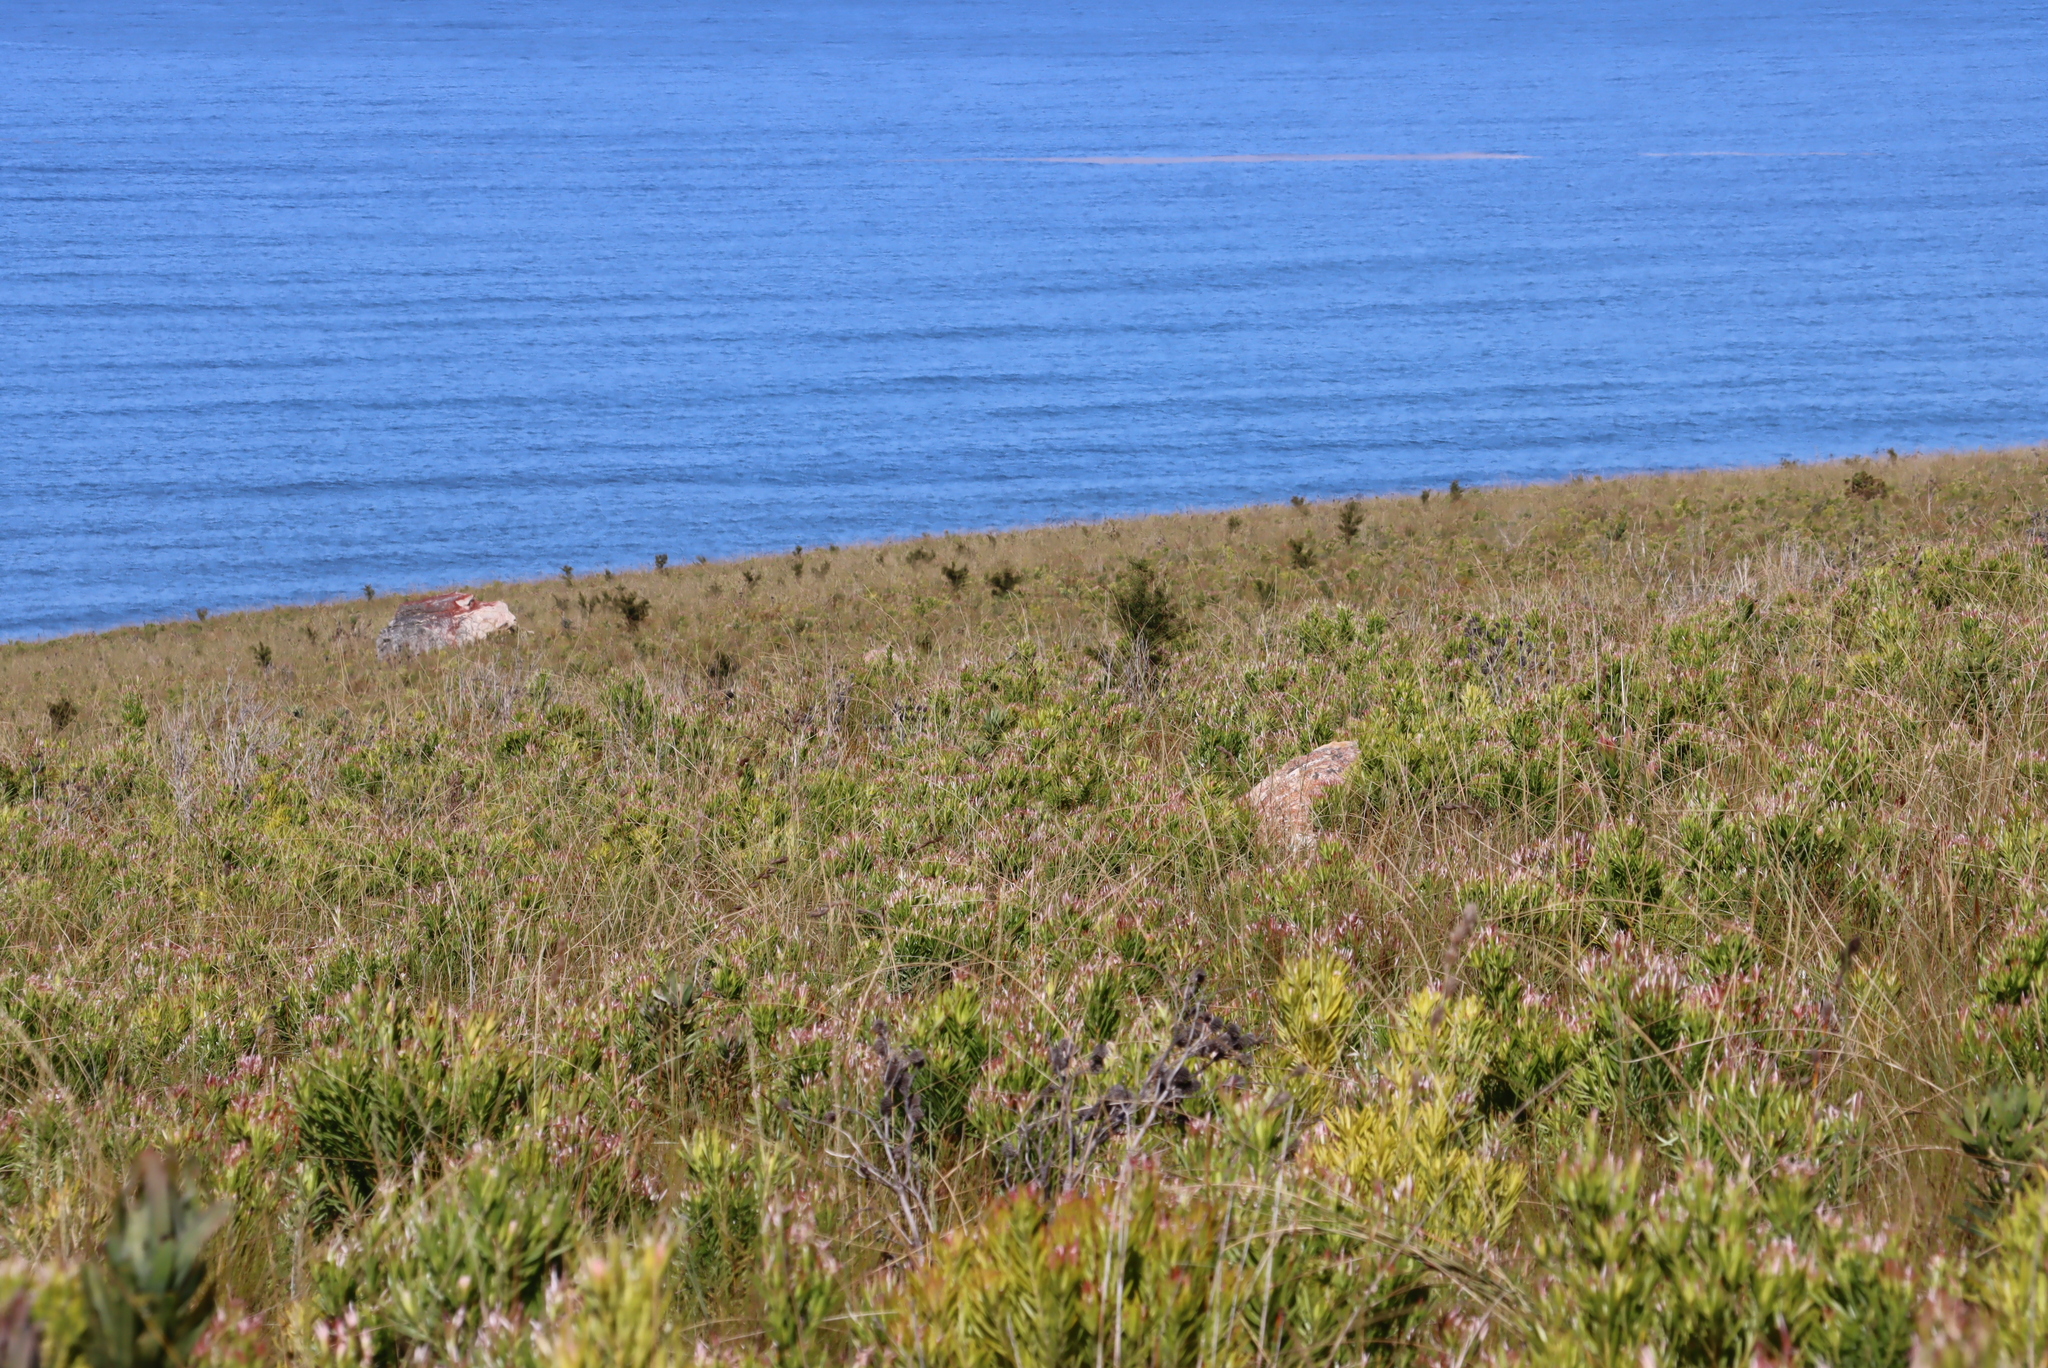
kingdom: Plantae
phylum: Tracheophyta
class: Magnoliopsida
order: Proteales
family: Proteaceae
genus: Hakea
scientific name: Hakea sericea
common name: Needle bush
